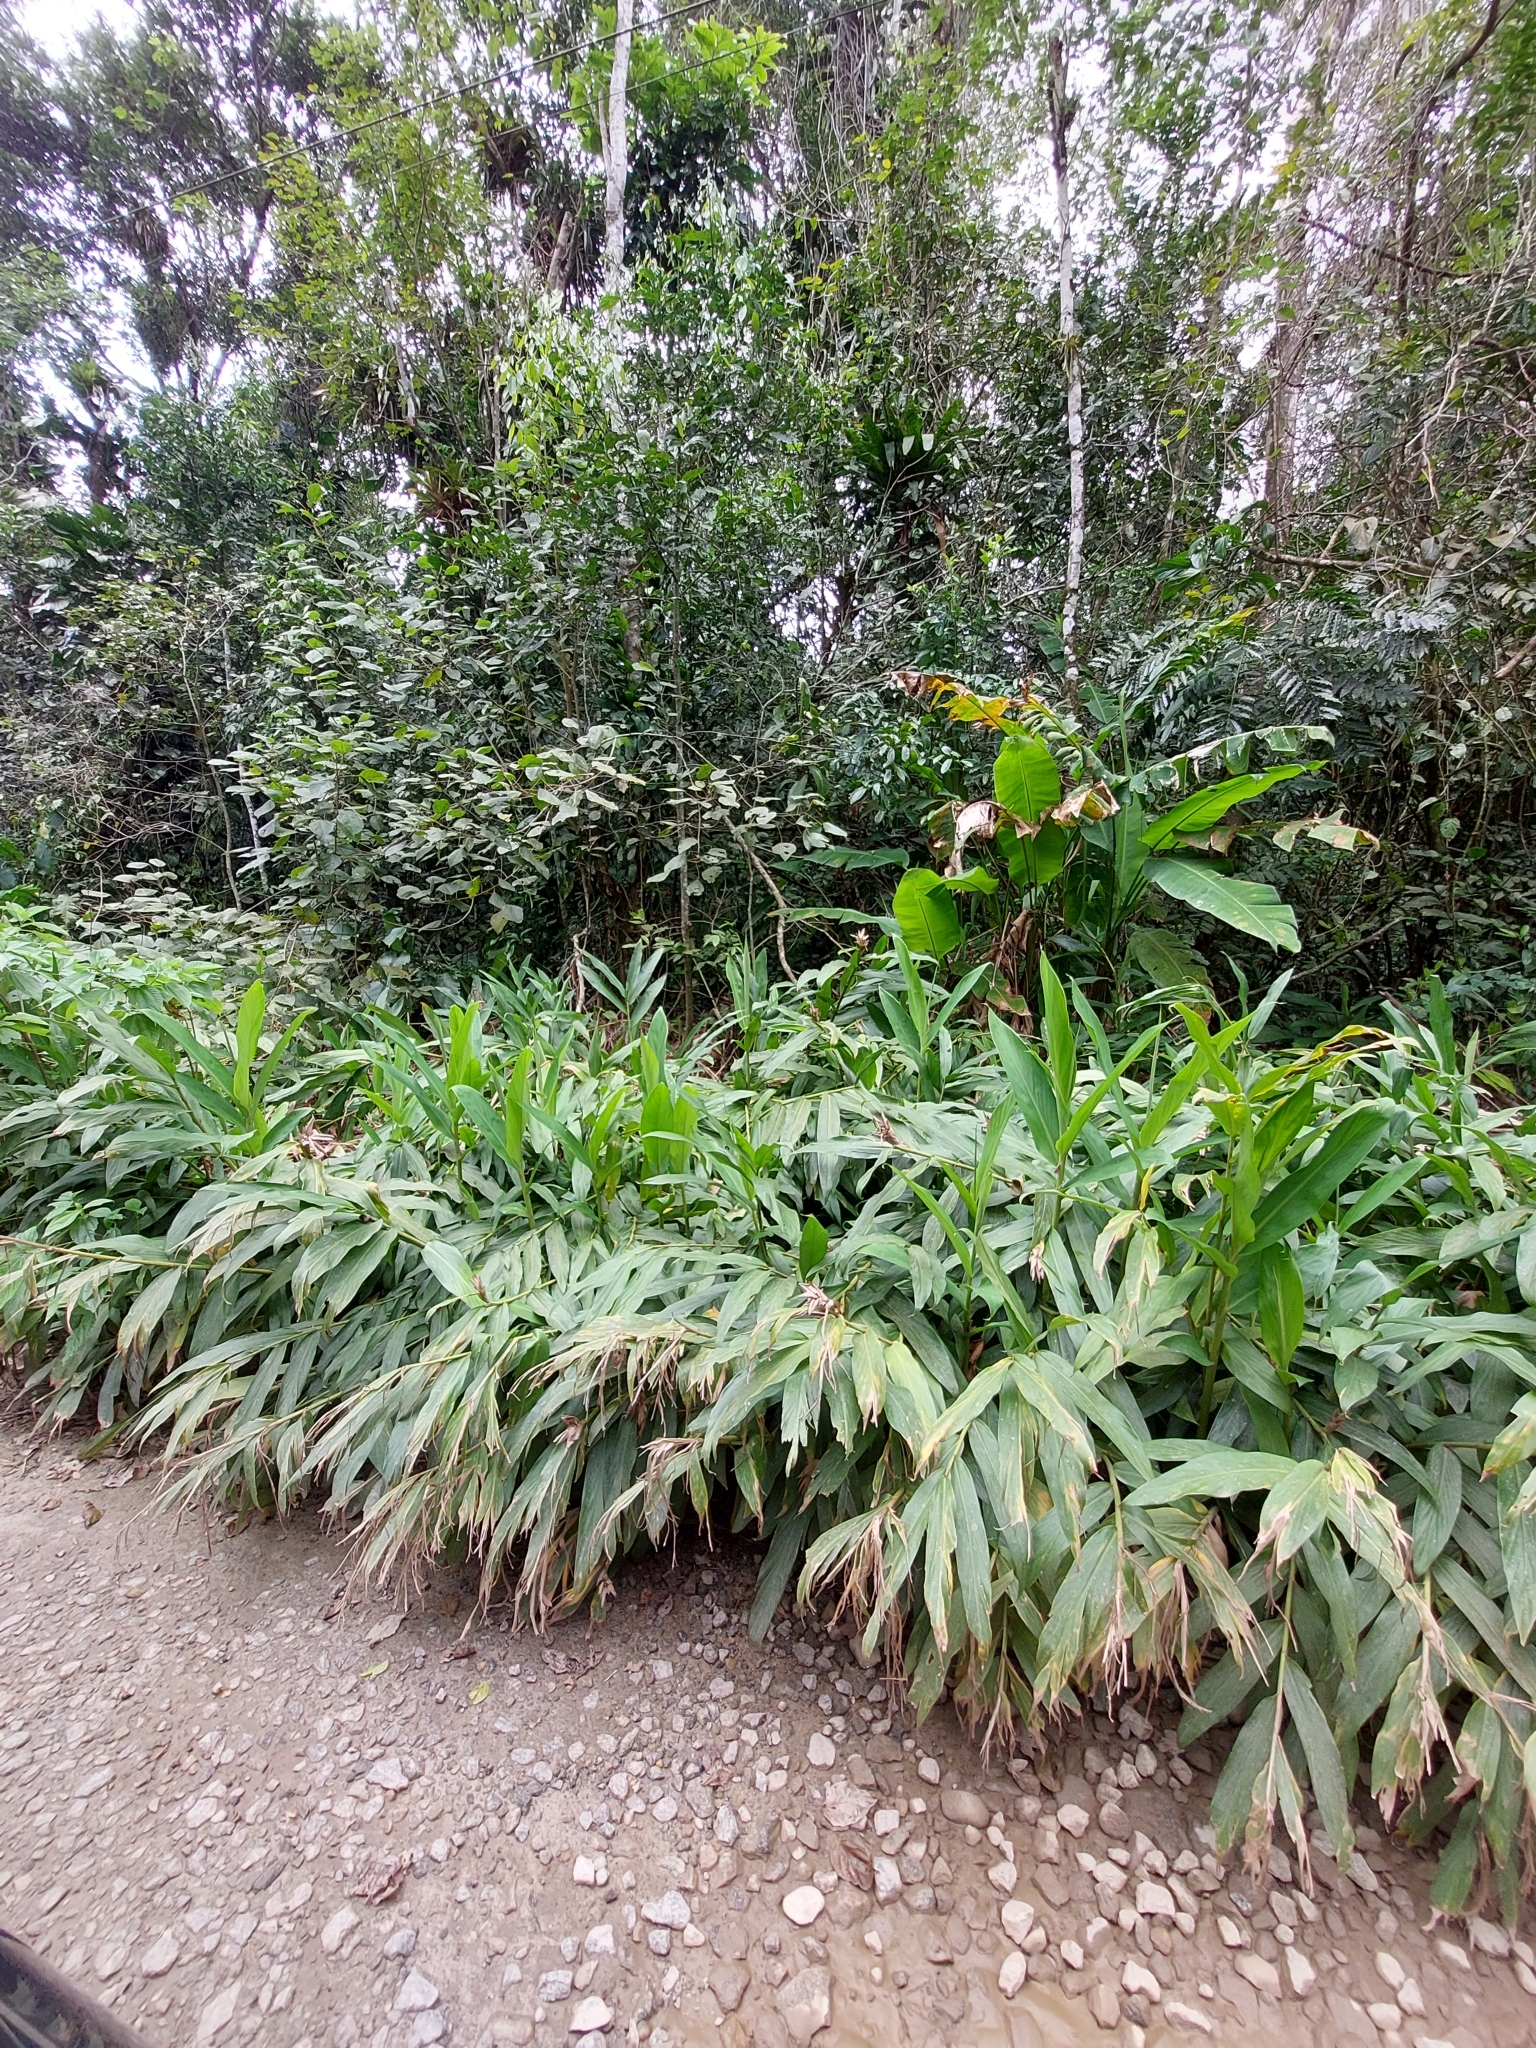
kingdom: Plantae
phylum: Tracheophyta
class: Liliopsida
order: Zingiberales
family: Zingiberaceae
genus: Hedychium
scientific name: Hedychium coronarium
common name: White garland-lily
